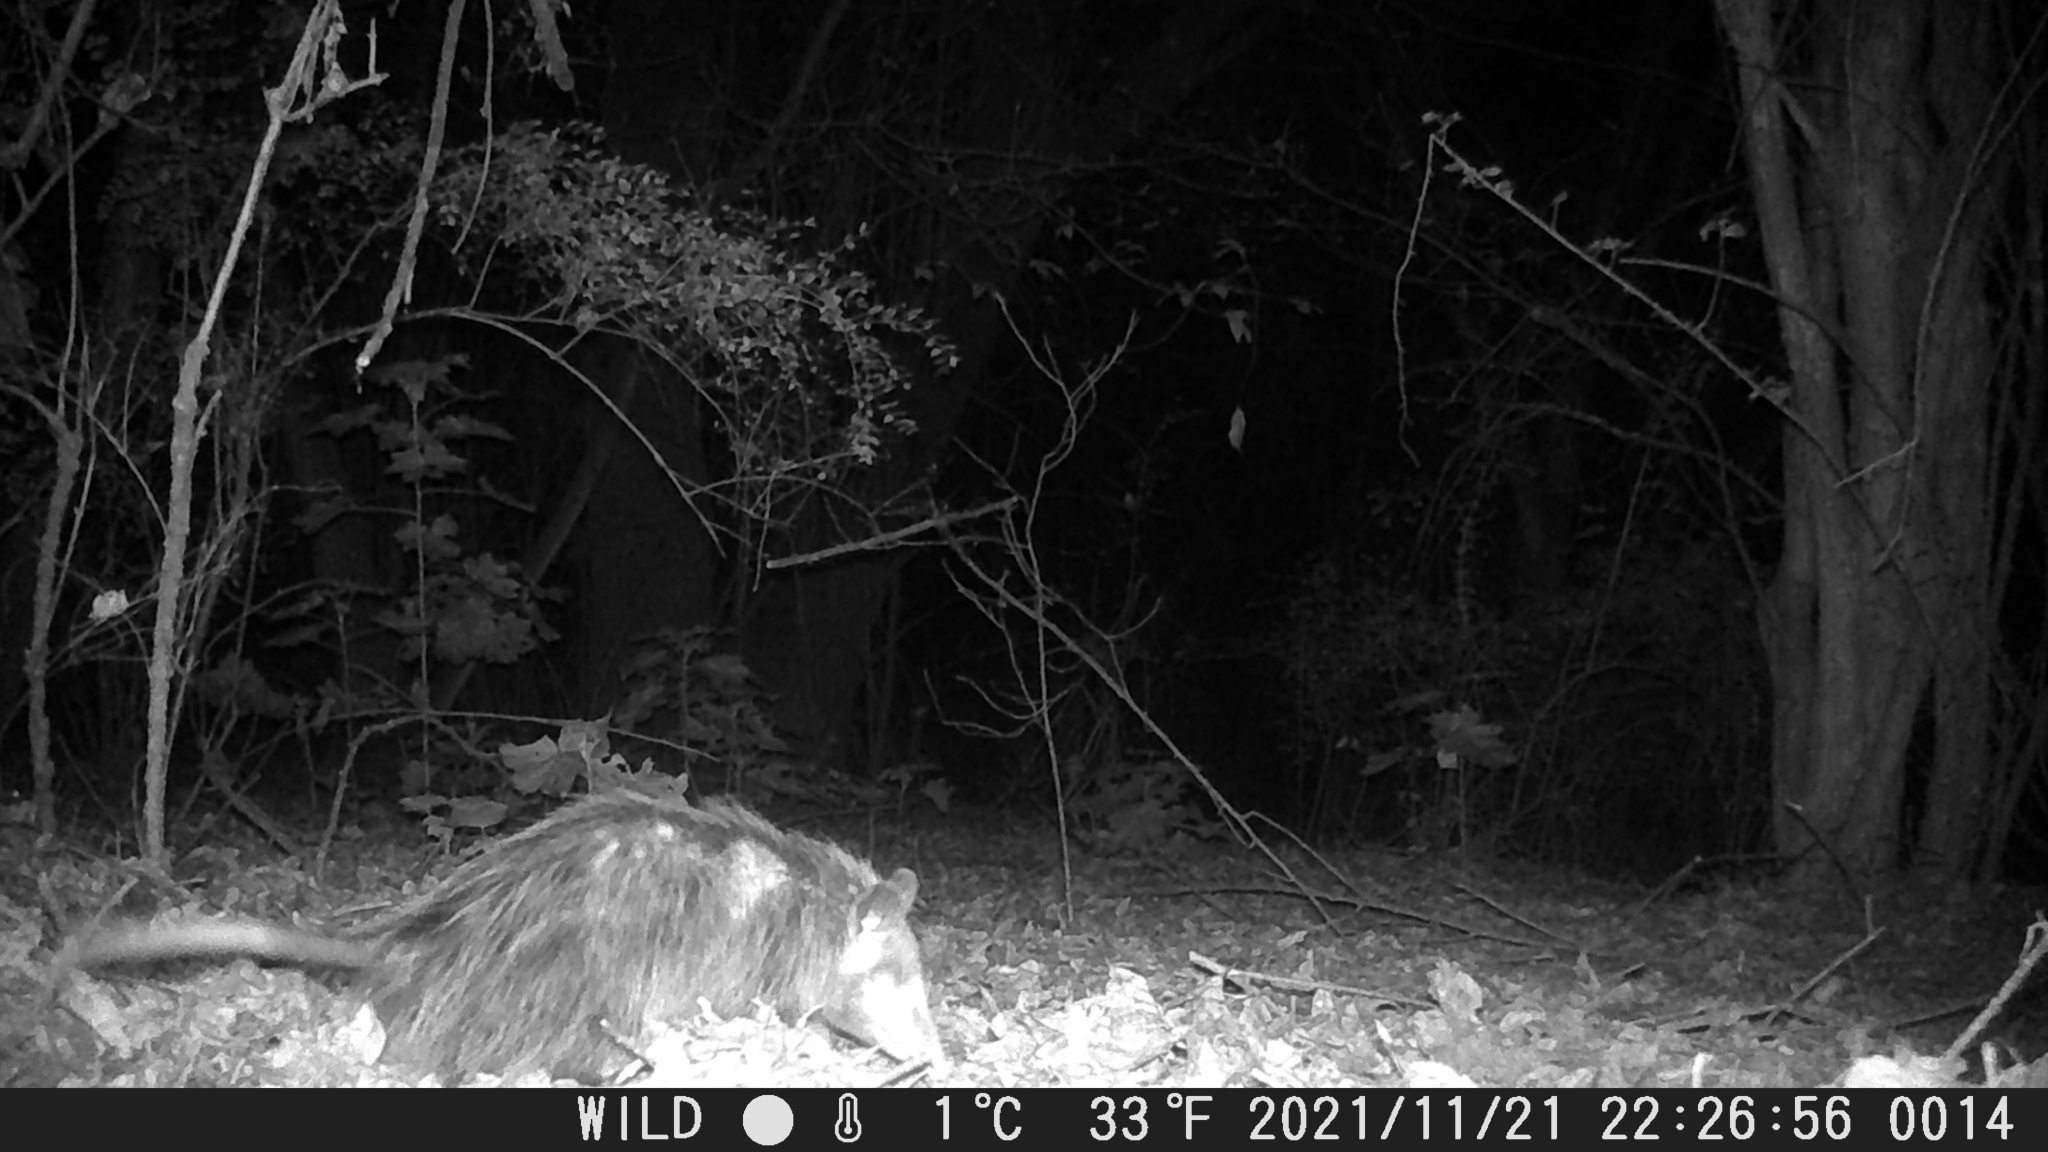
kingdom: Animalia
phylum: Chordata
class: Mammalia
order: Didelphimorphia
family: Didelphidae
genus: Didelphis
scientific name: Didelphis virginiana
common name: Virginia opossum
